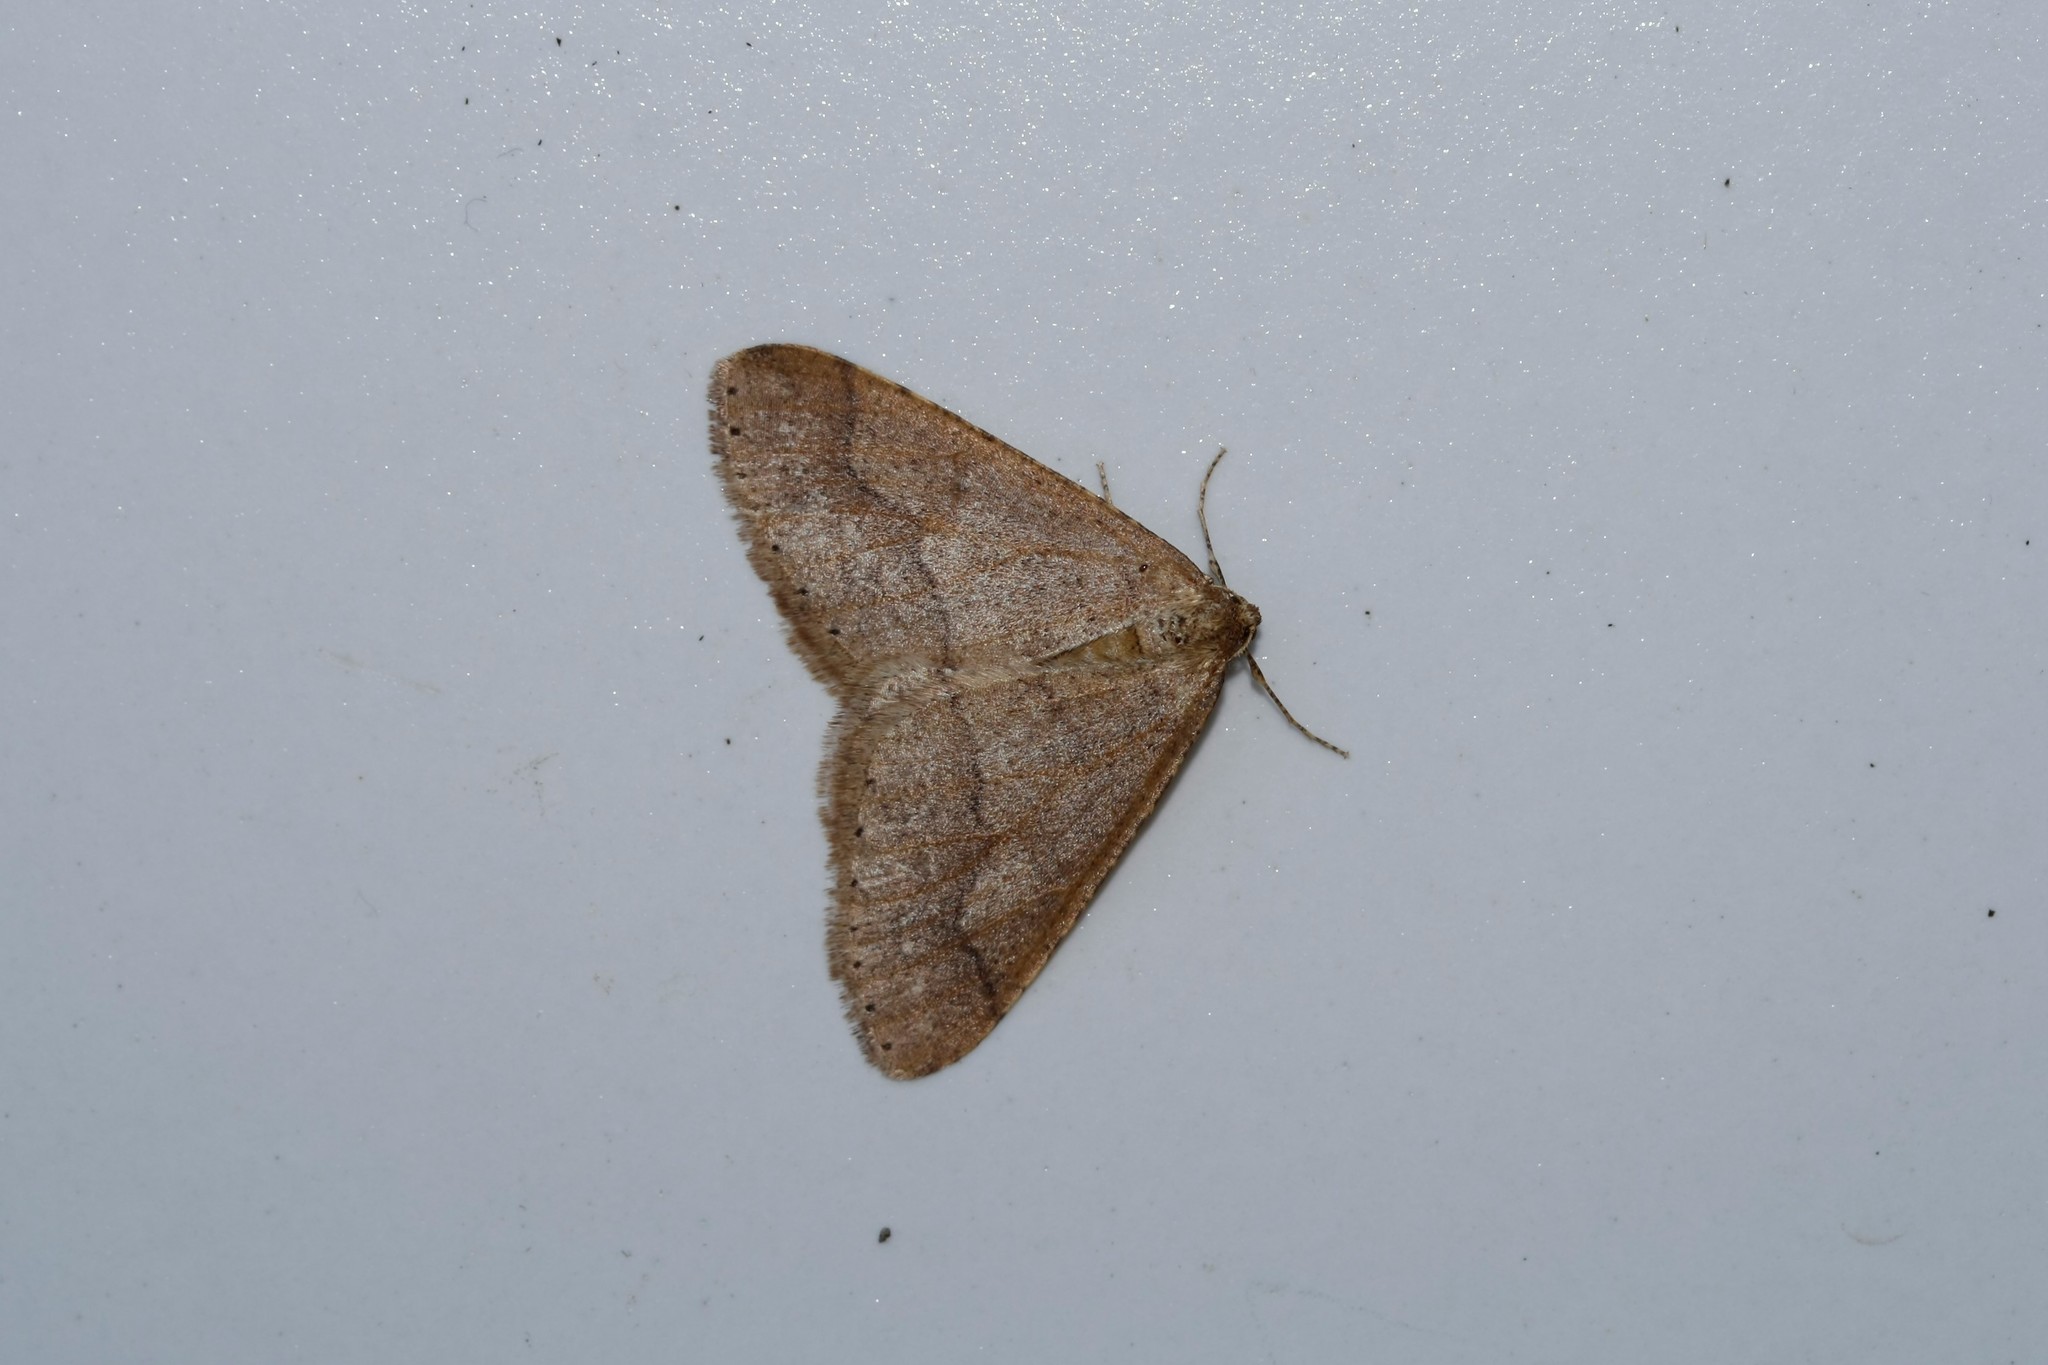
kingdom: Animalia
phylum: Arthropoda
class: Insecta
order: Lepidoptera
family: Geometridae
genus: Agriopis
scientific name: Agriopis marginaria
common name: Dotted border
